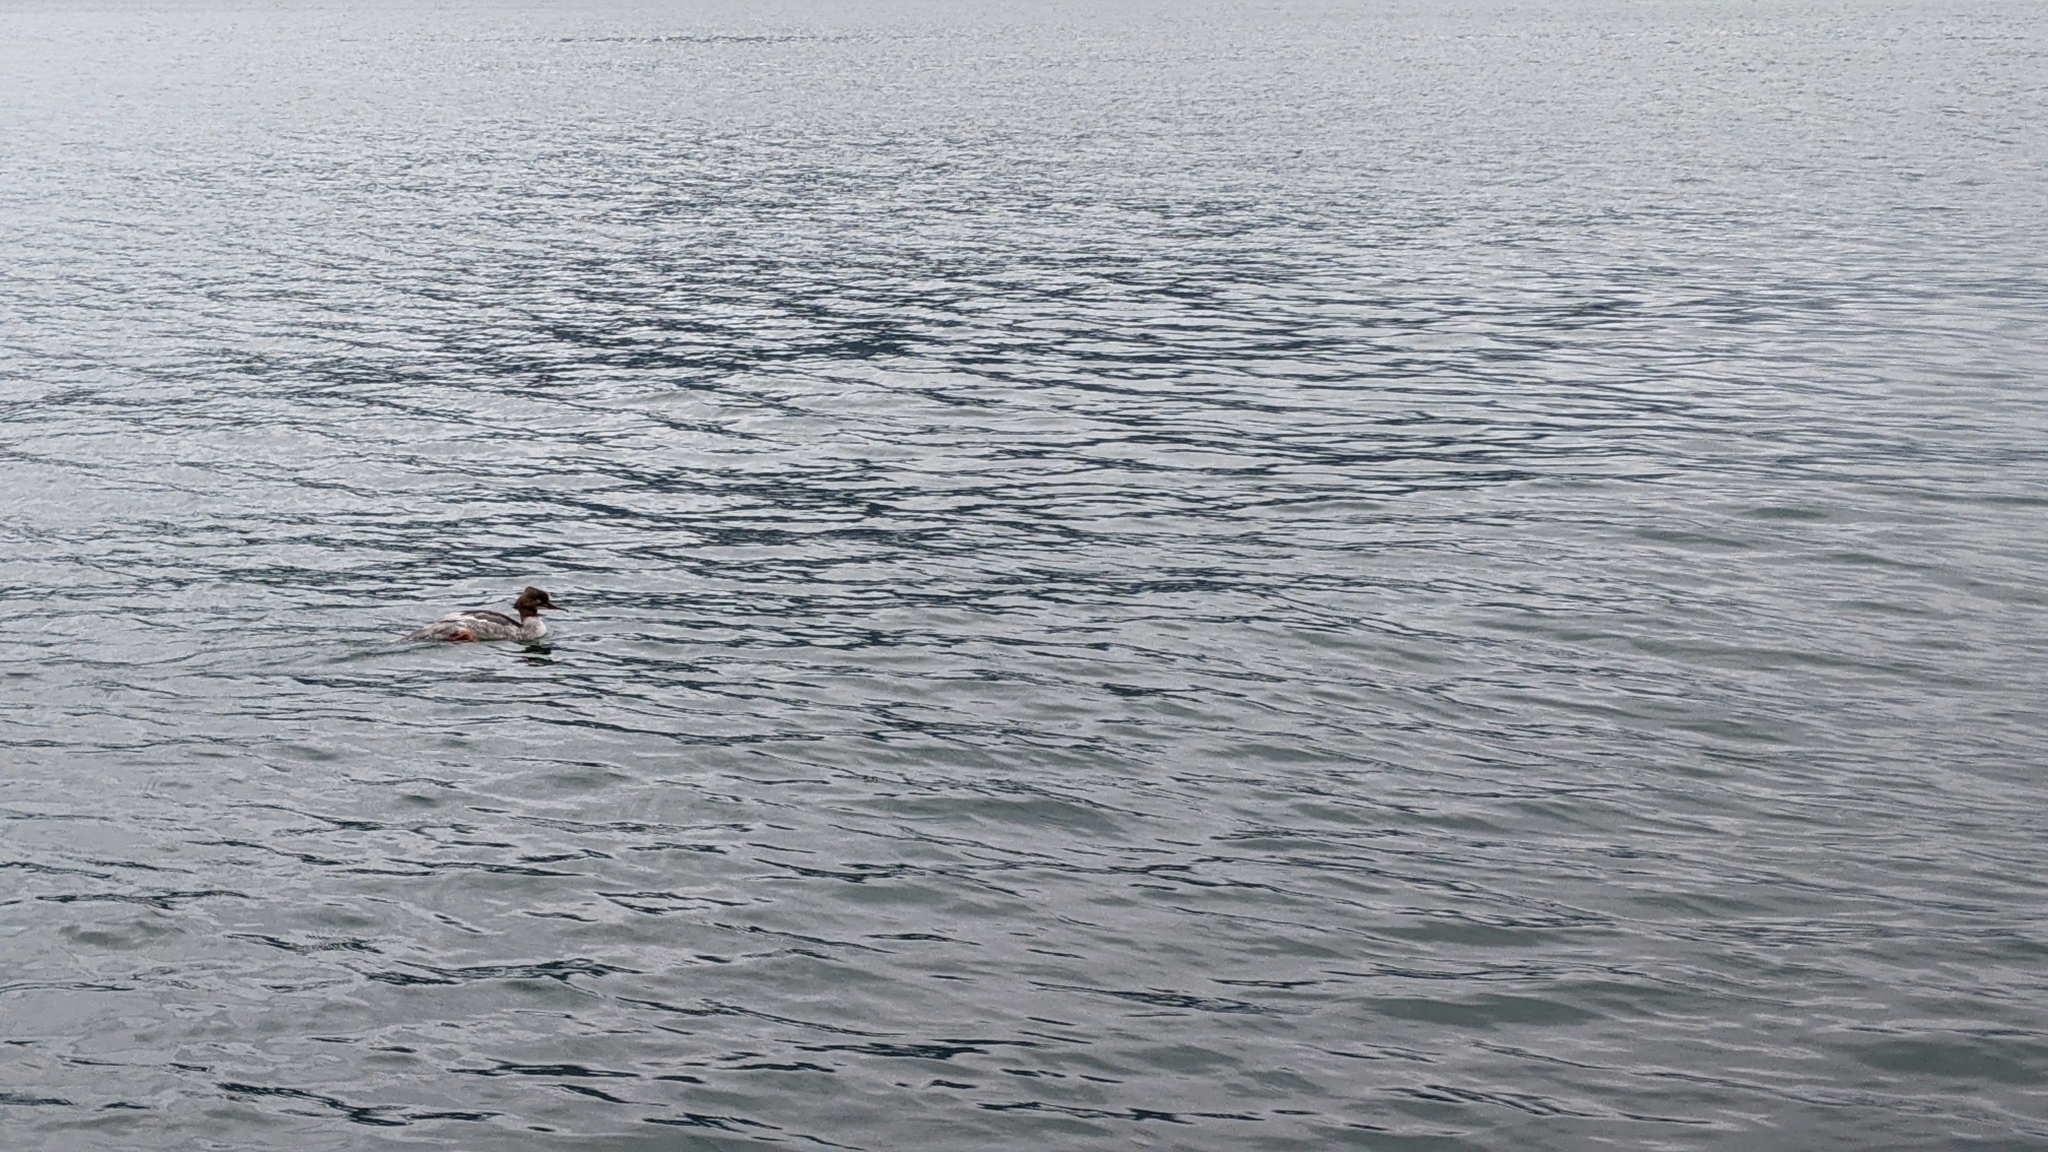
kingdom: Animalia
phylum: Chordata
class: Aves
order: Anseriformes
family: Anatidae
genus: Mergus
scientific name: Mergus merganser
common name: Common merganser
